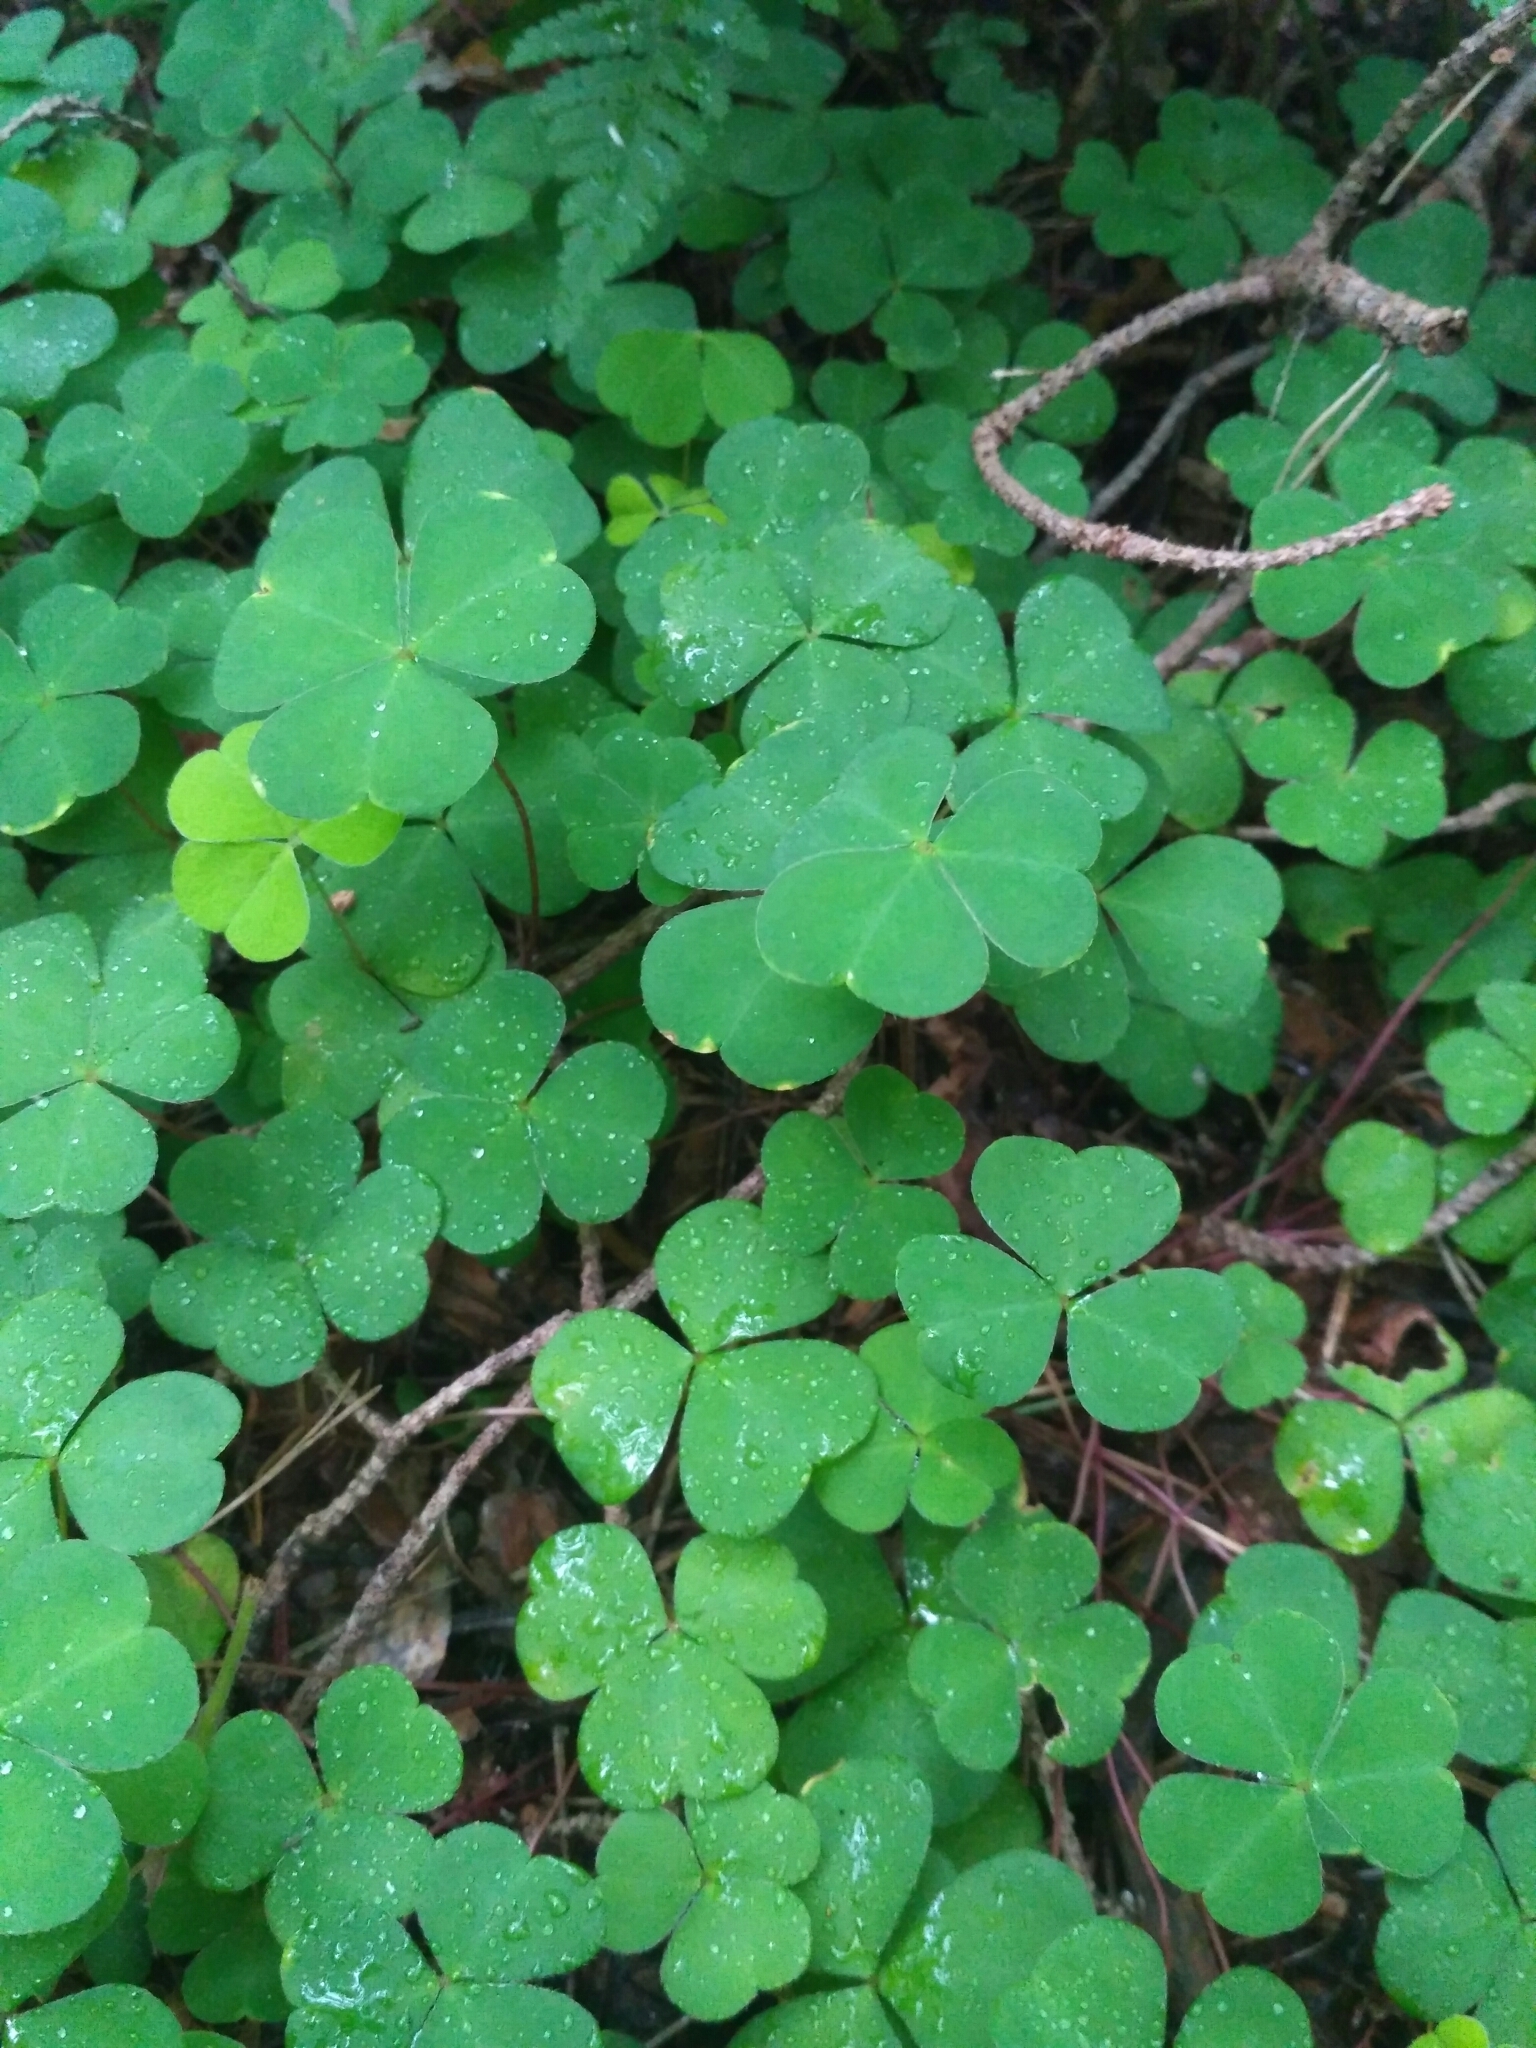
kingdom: Plantae
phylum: Tracheophyta
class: Magnoliopsida
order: Oxalidales
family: Oxalidaceae
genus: Oxalis
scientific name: Oxalis acetosella
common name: Wood-sorrel
